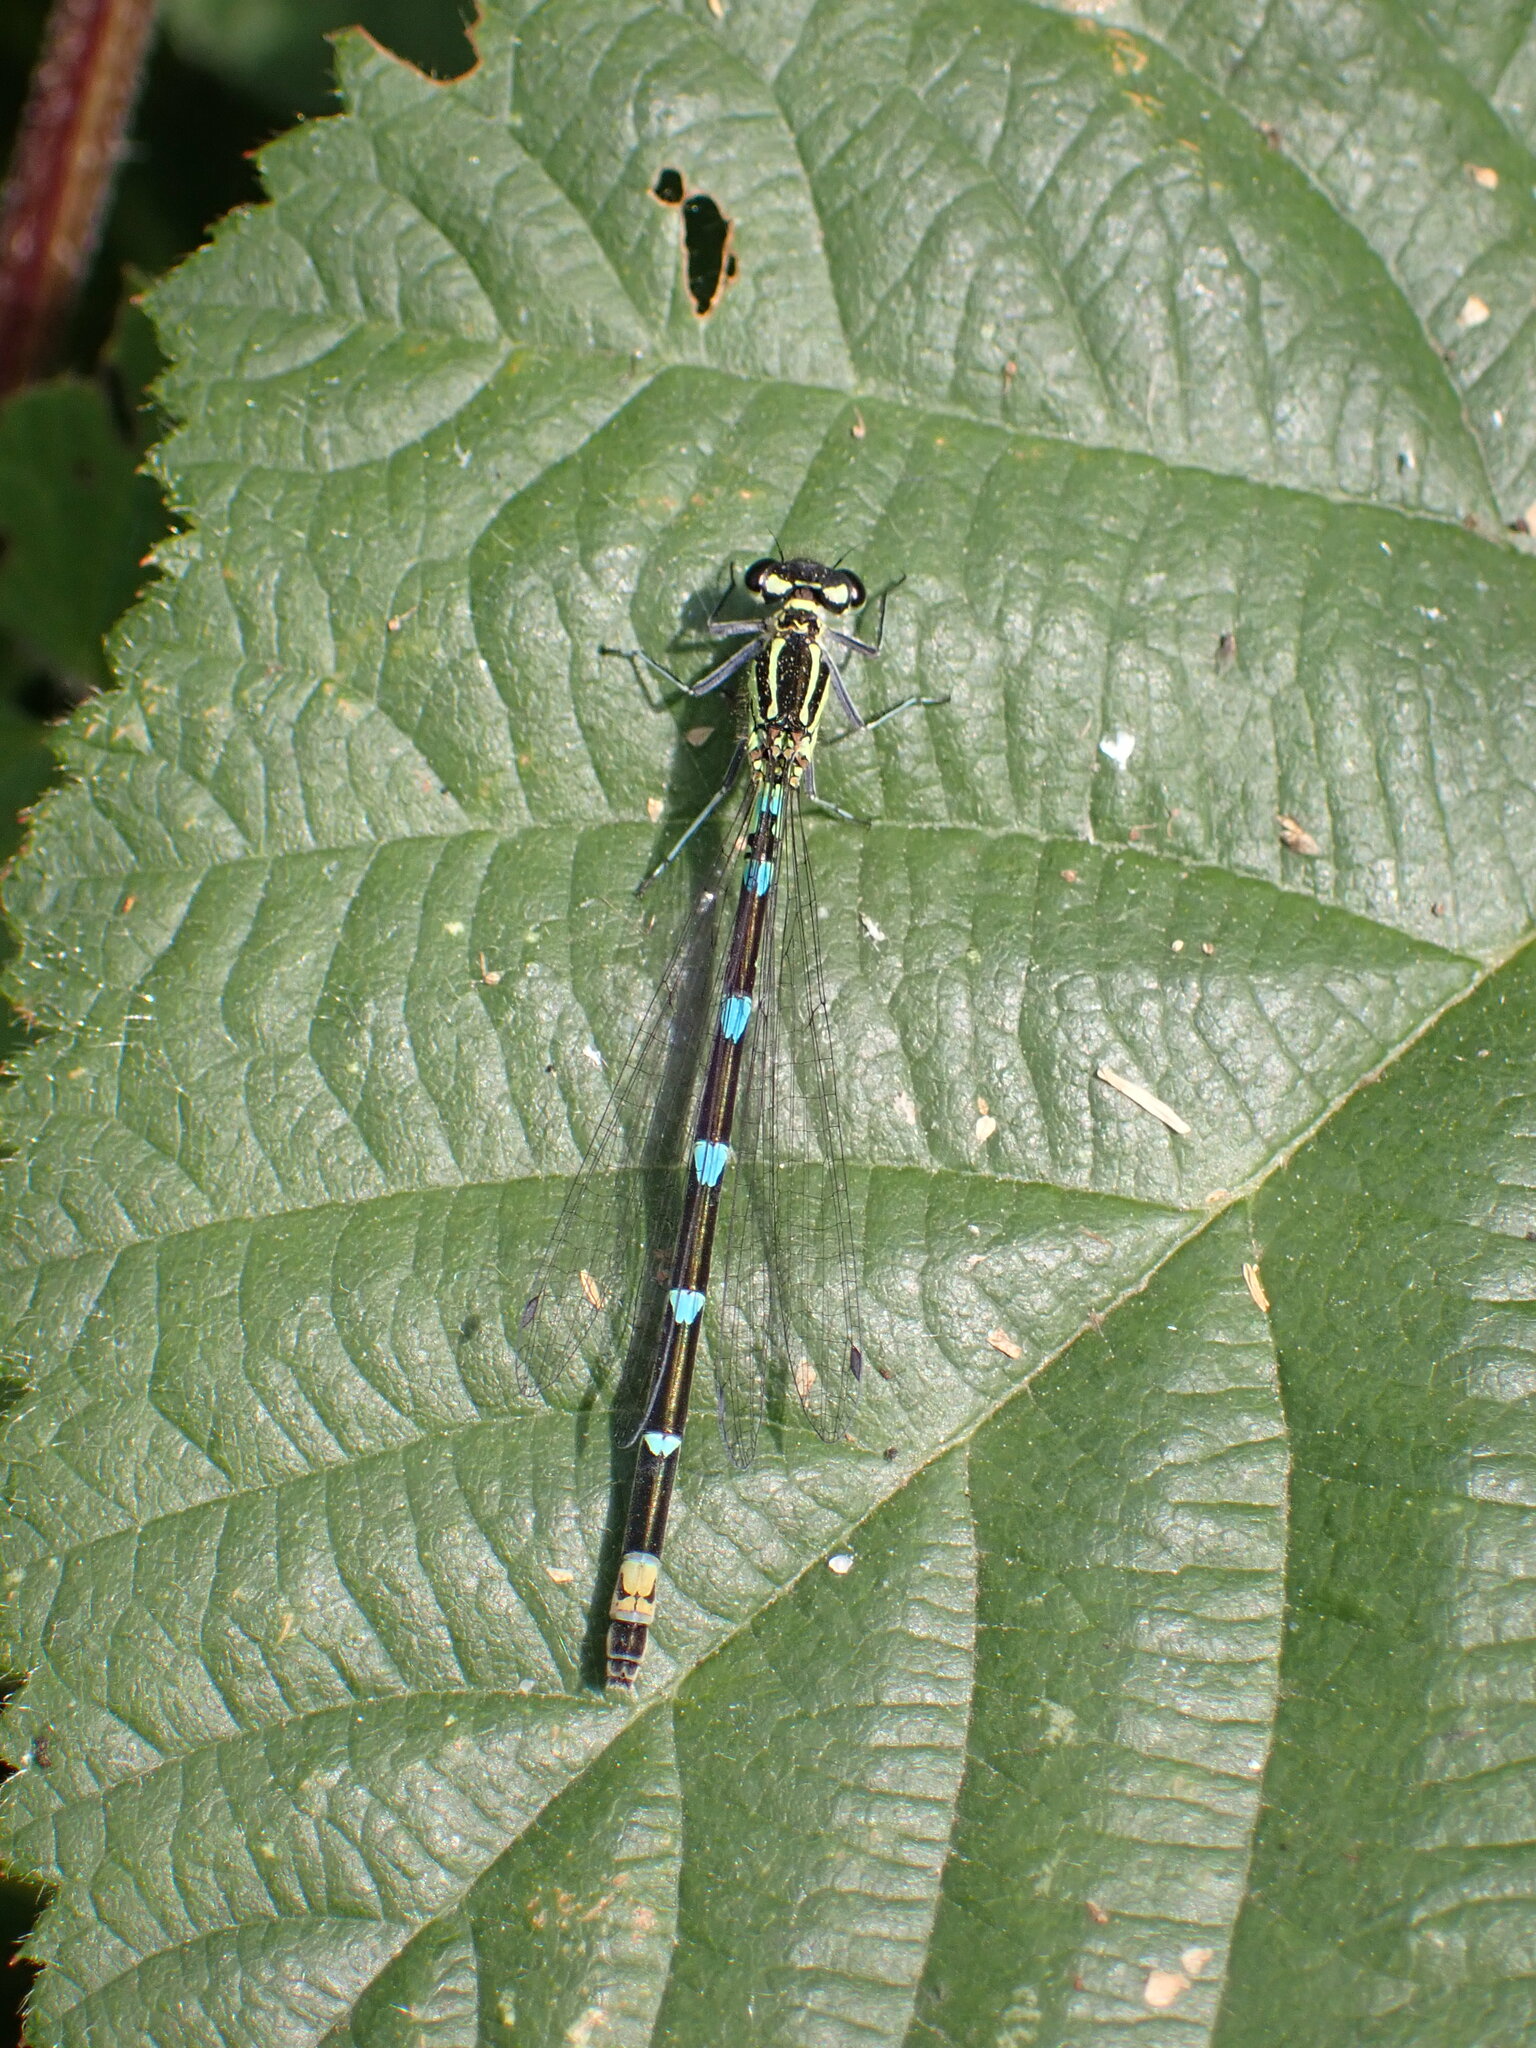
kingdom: Animalia
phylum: Arthropoda
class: Insecta
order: Odonata
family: Coenagrionidae
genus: Coenagrion
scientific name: Coenagrion pulchellum
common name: Variable bluet
